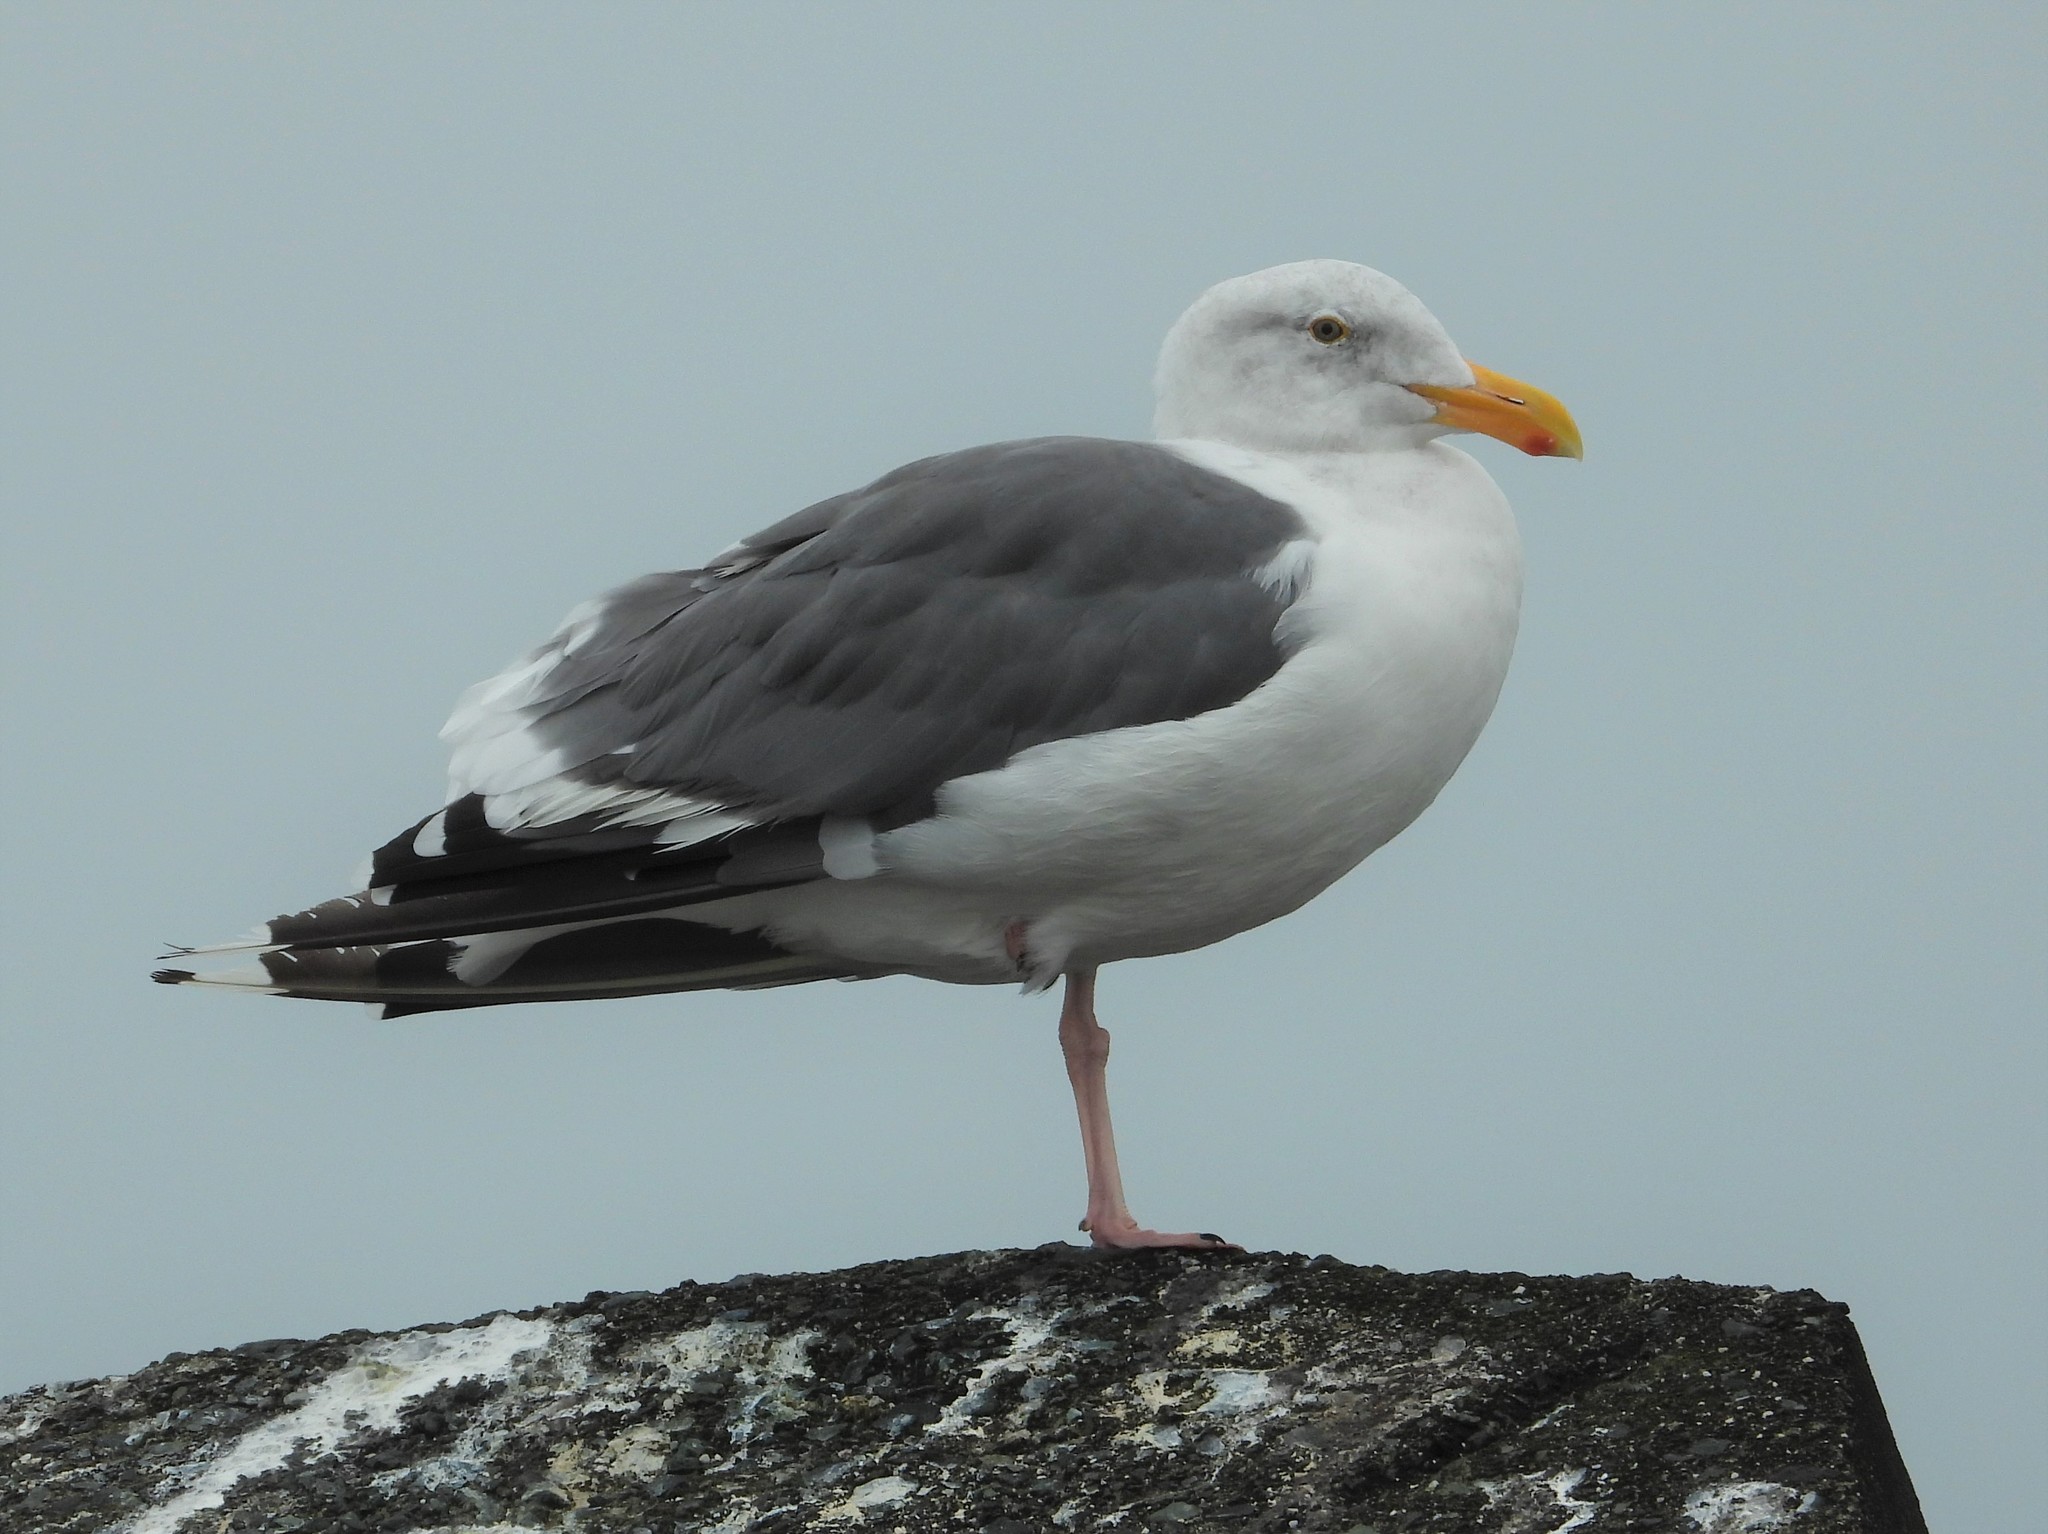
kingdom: Animalia
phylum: Chordata
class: Aves
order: Charadriiformes
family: Laridae
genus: Larus
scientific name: Larus occidentalis
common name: Western gull
